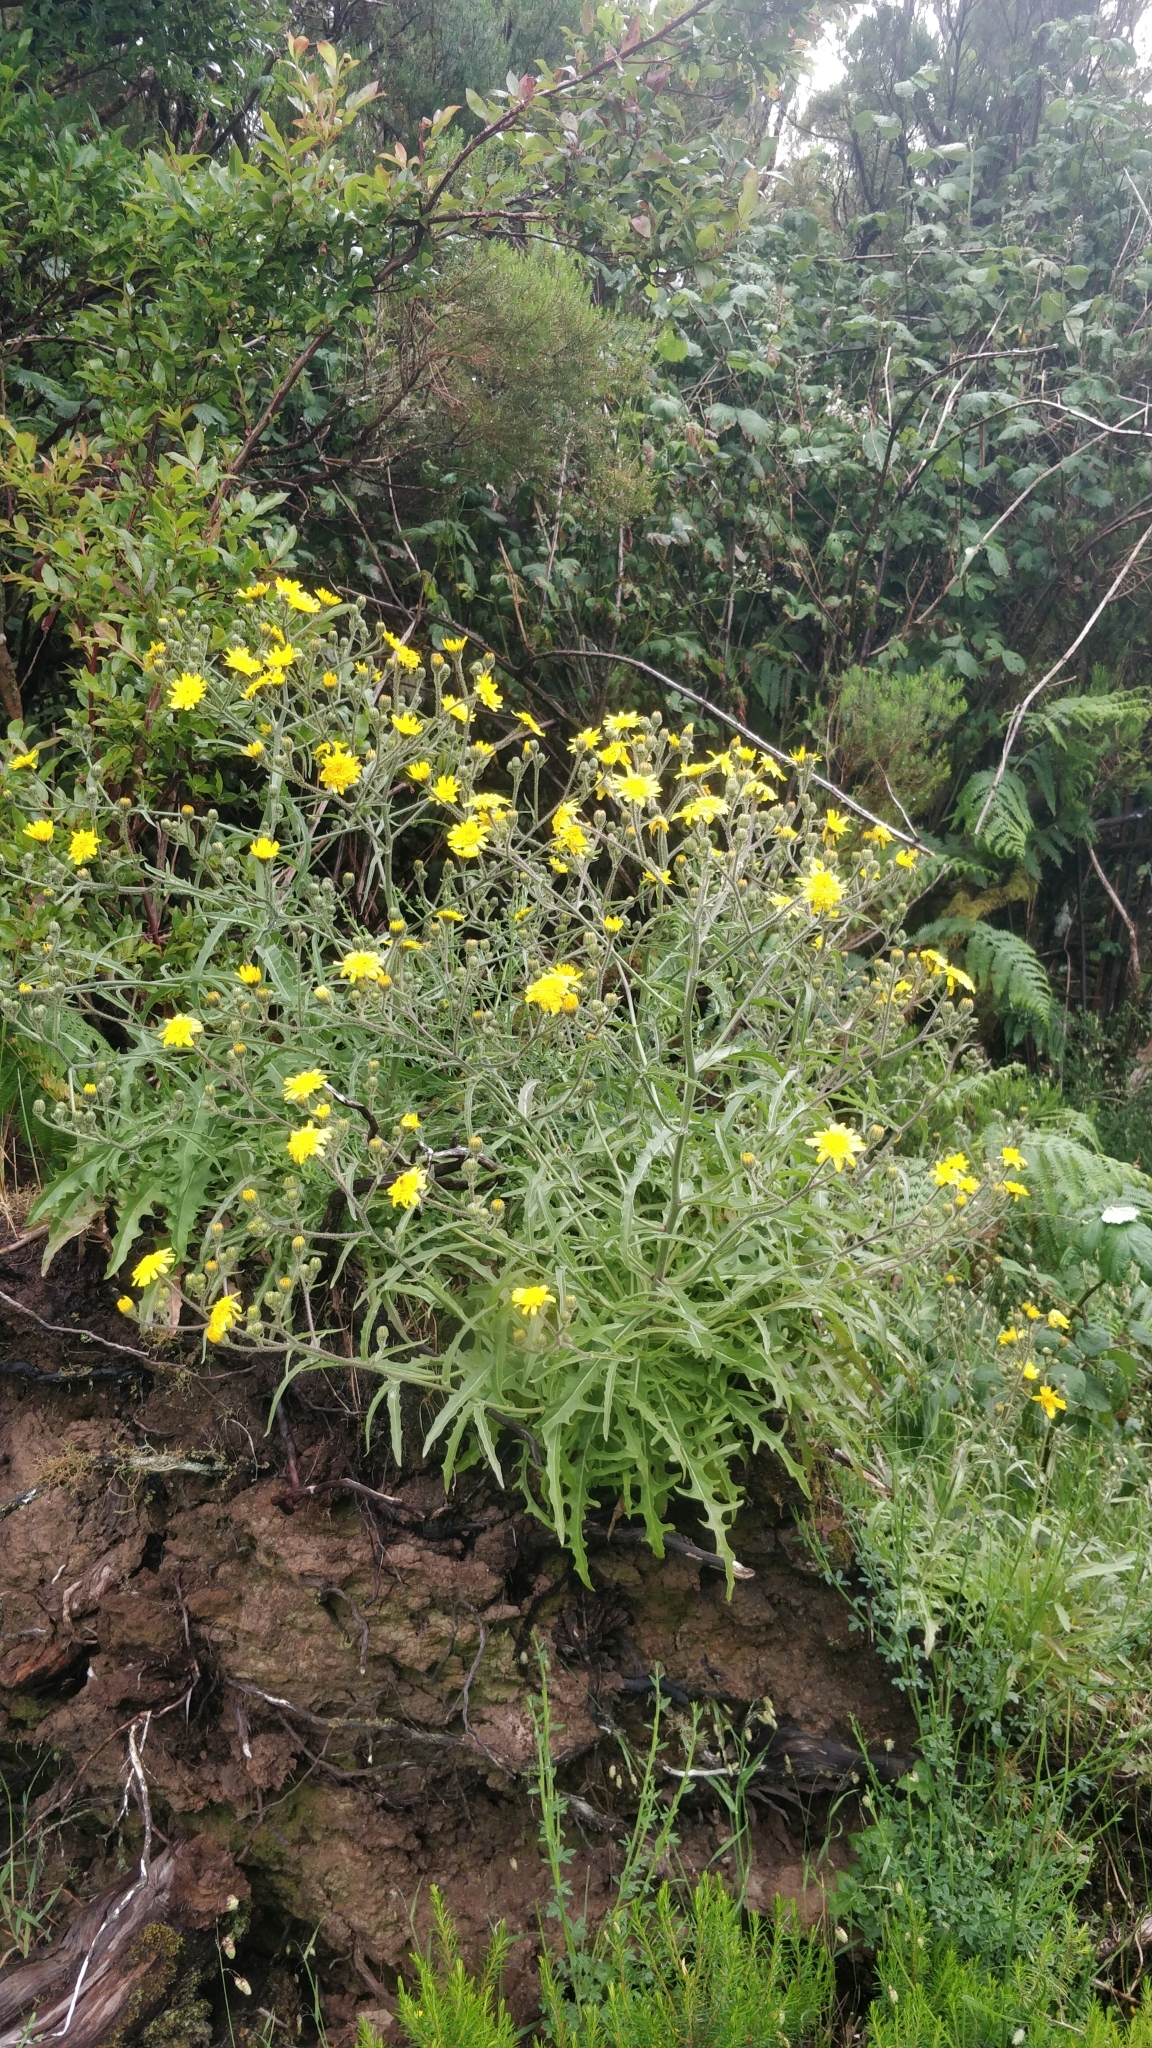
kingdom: Plantae
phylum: Tracheophyta
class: Magnoliopsida
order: Asterales
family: Asteraceae
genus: Andryala
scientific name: Andryala glandulosa
